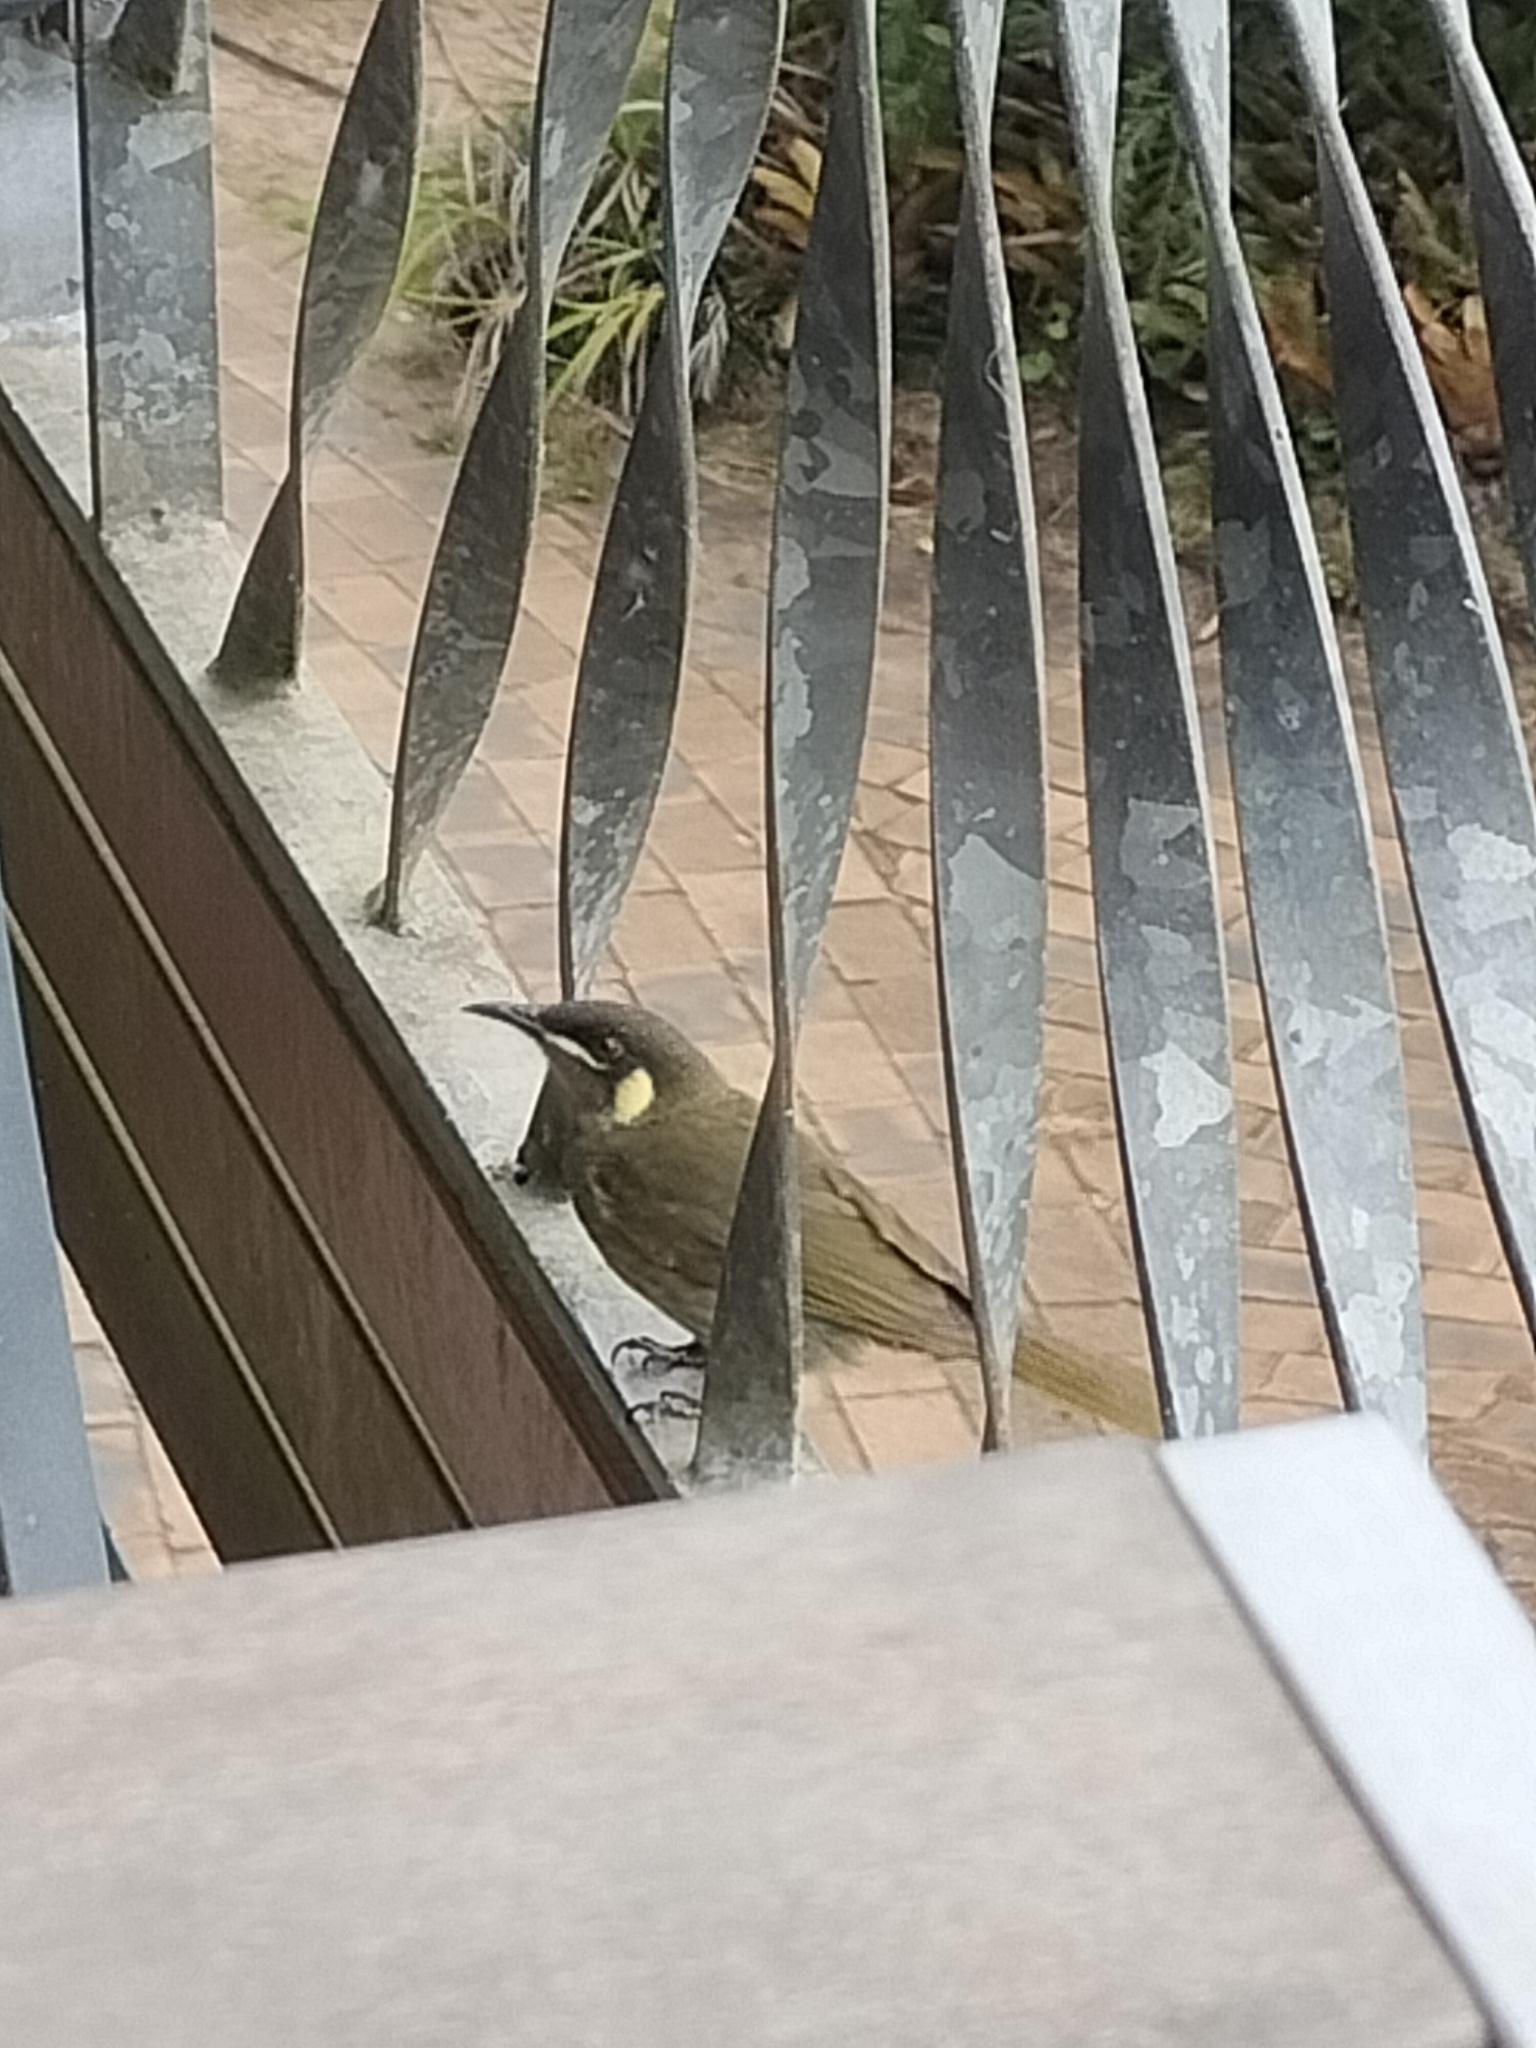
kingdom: Animalia
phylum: Chordata
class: Aves
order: Passeriformes
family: Meliphagidae
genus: Meliphaga
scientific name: Meliphaga lewinii
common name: Lewin's honeyeater
